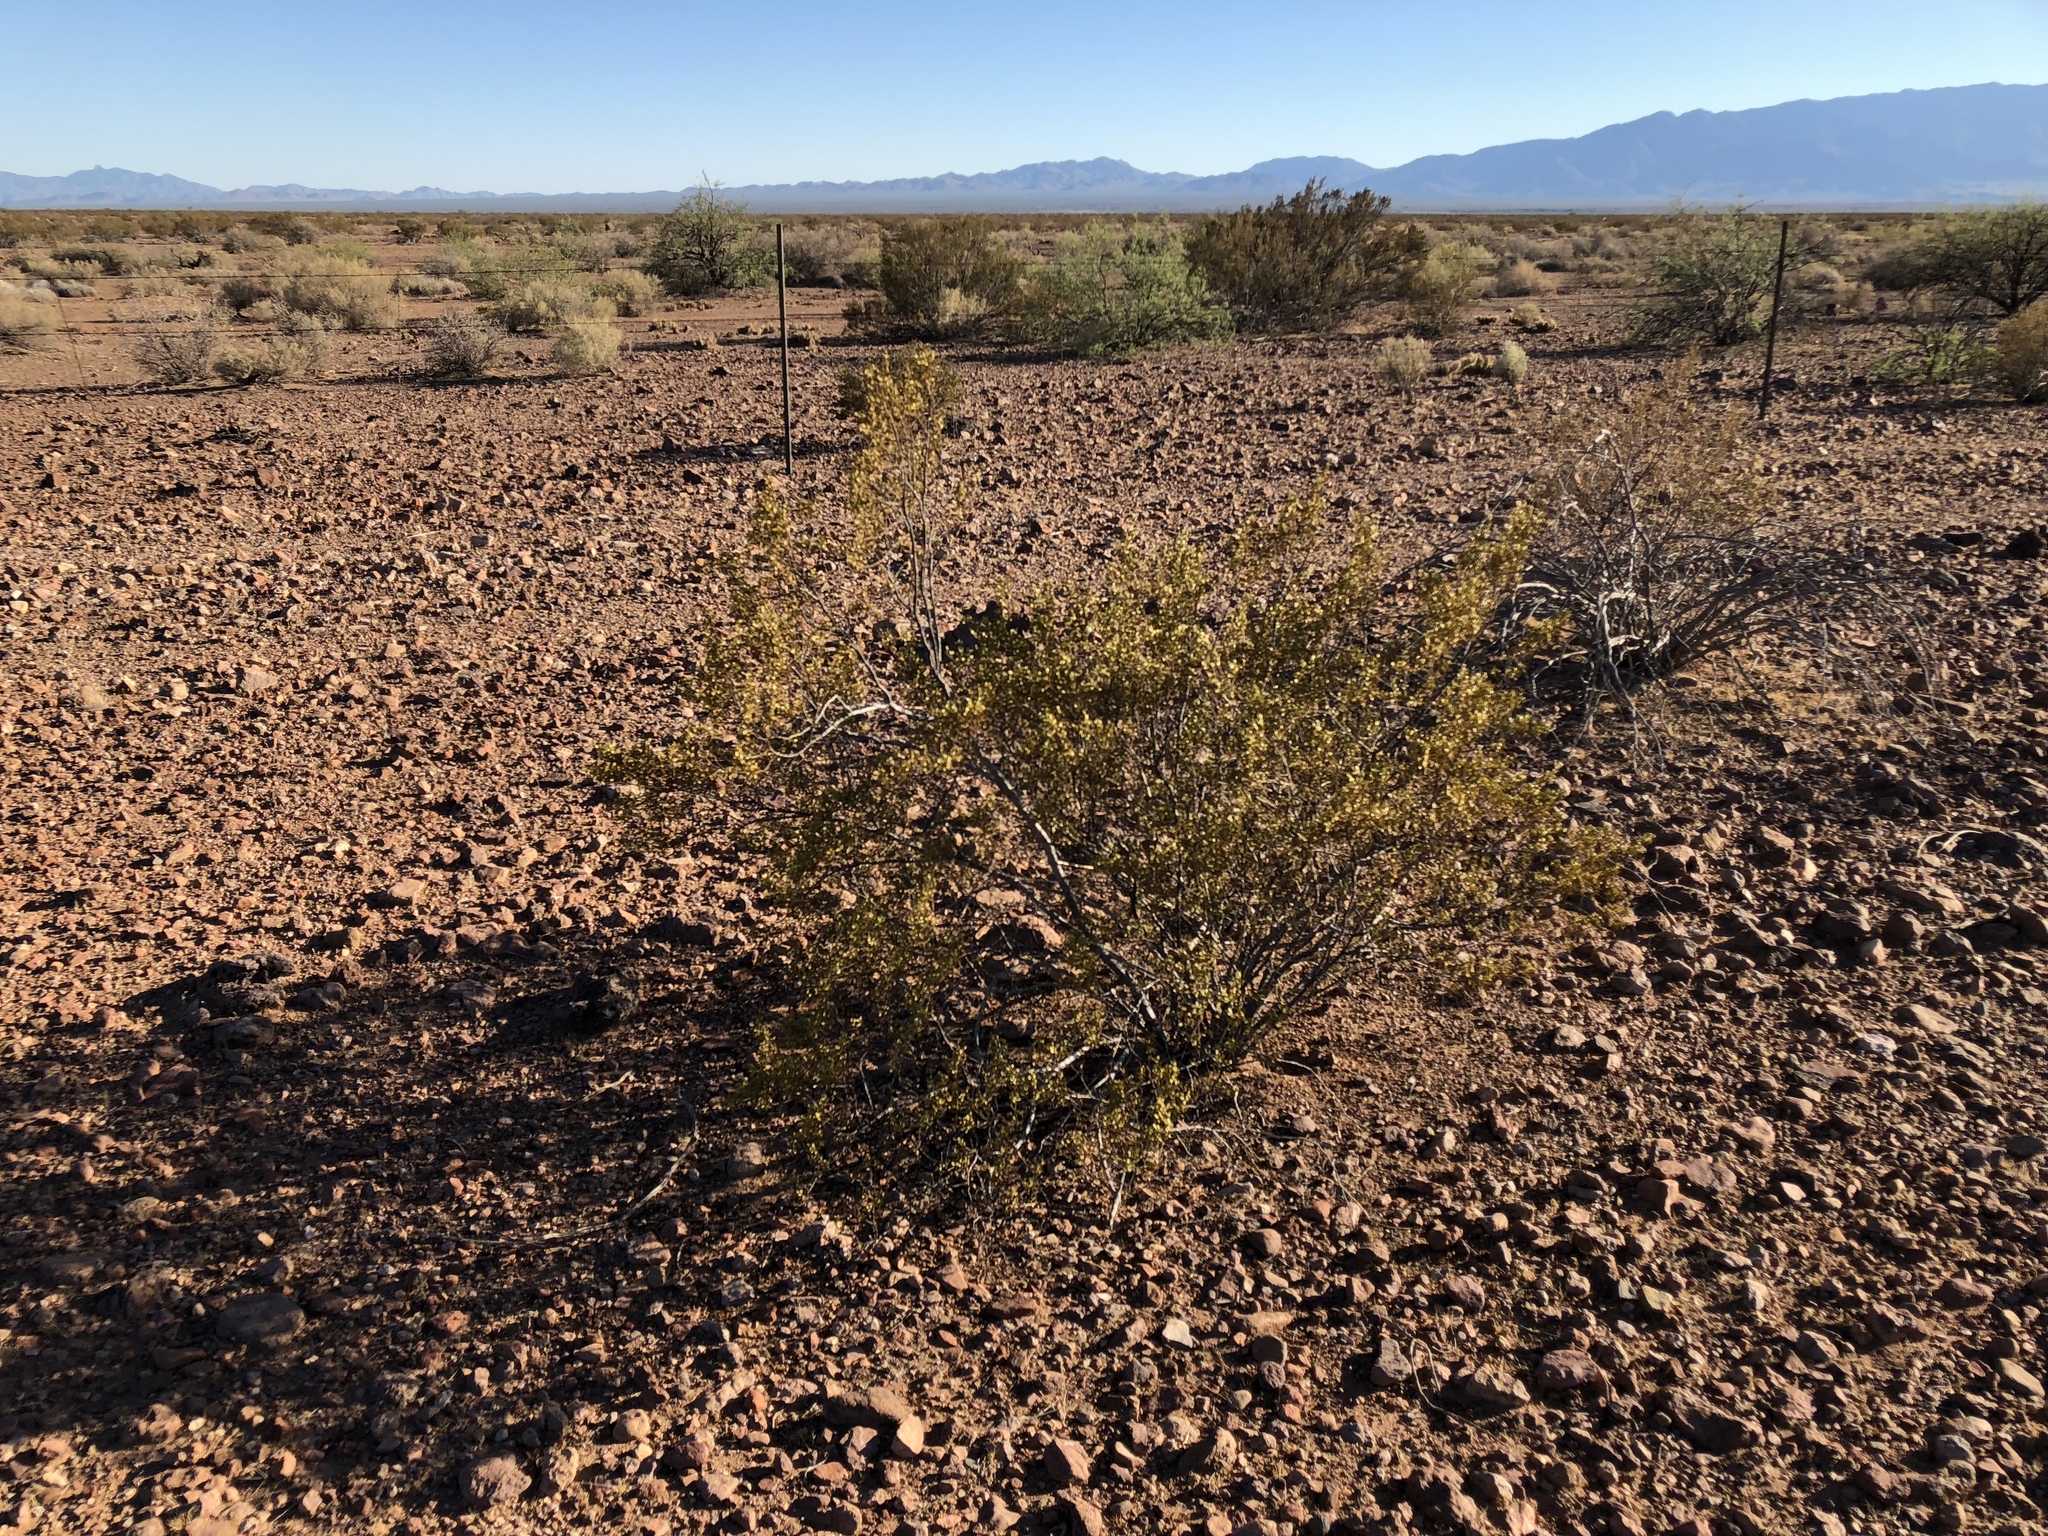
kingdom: Plantae
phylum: Tracheophyta
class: Magnoliopsida
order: Zygophyllales
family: Zygophyllaceae
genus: Larrea
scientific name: Larrea tridentata
